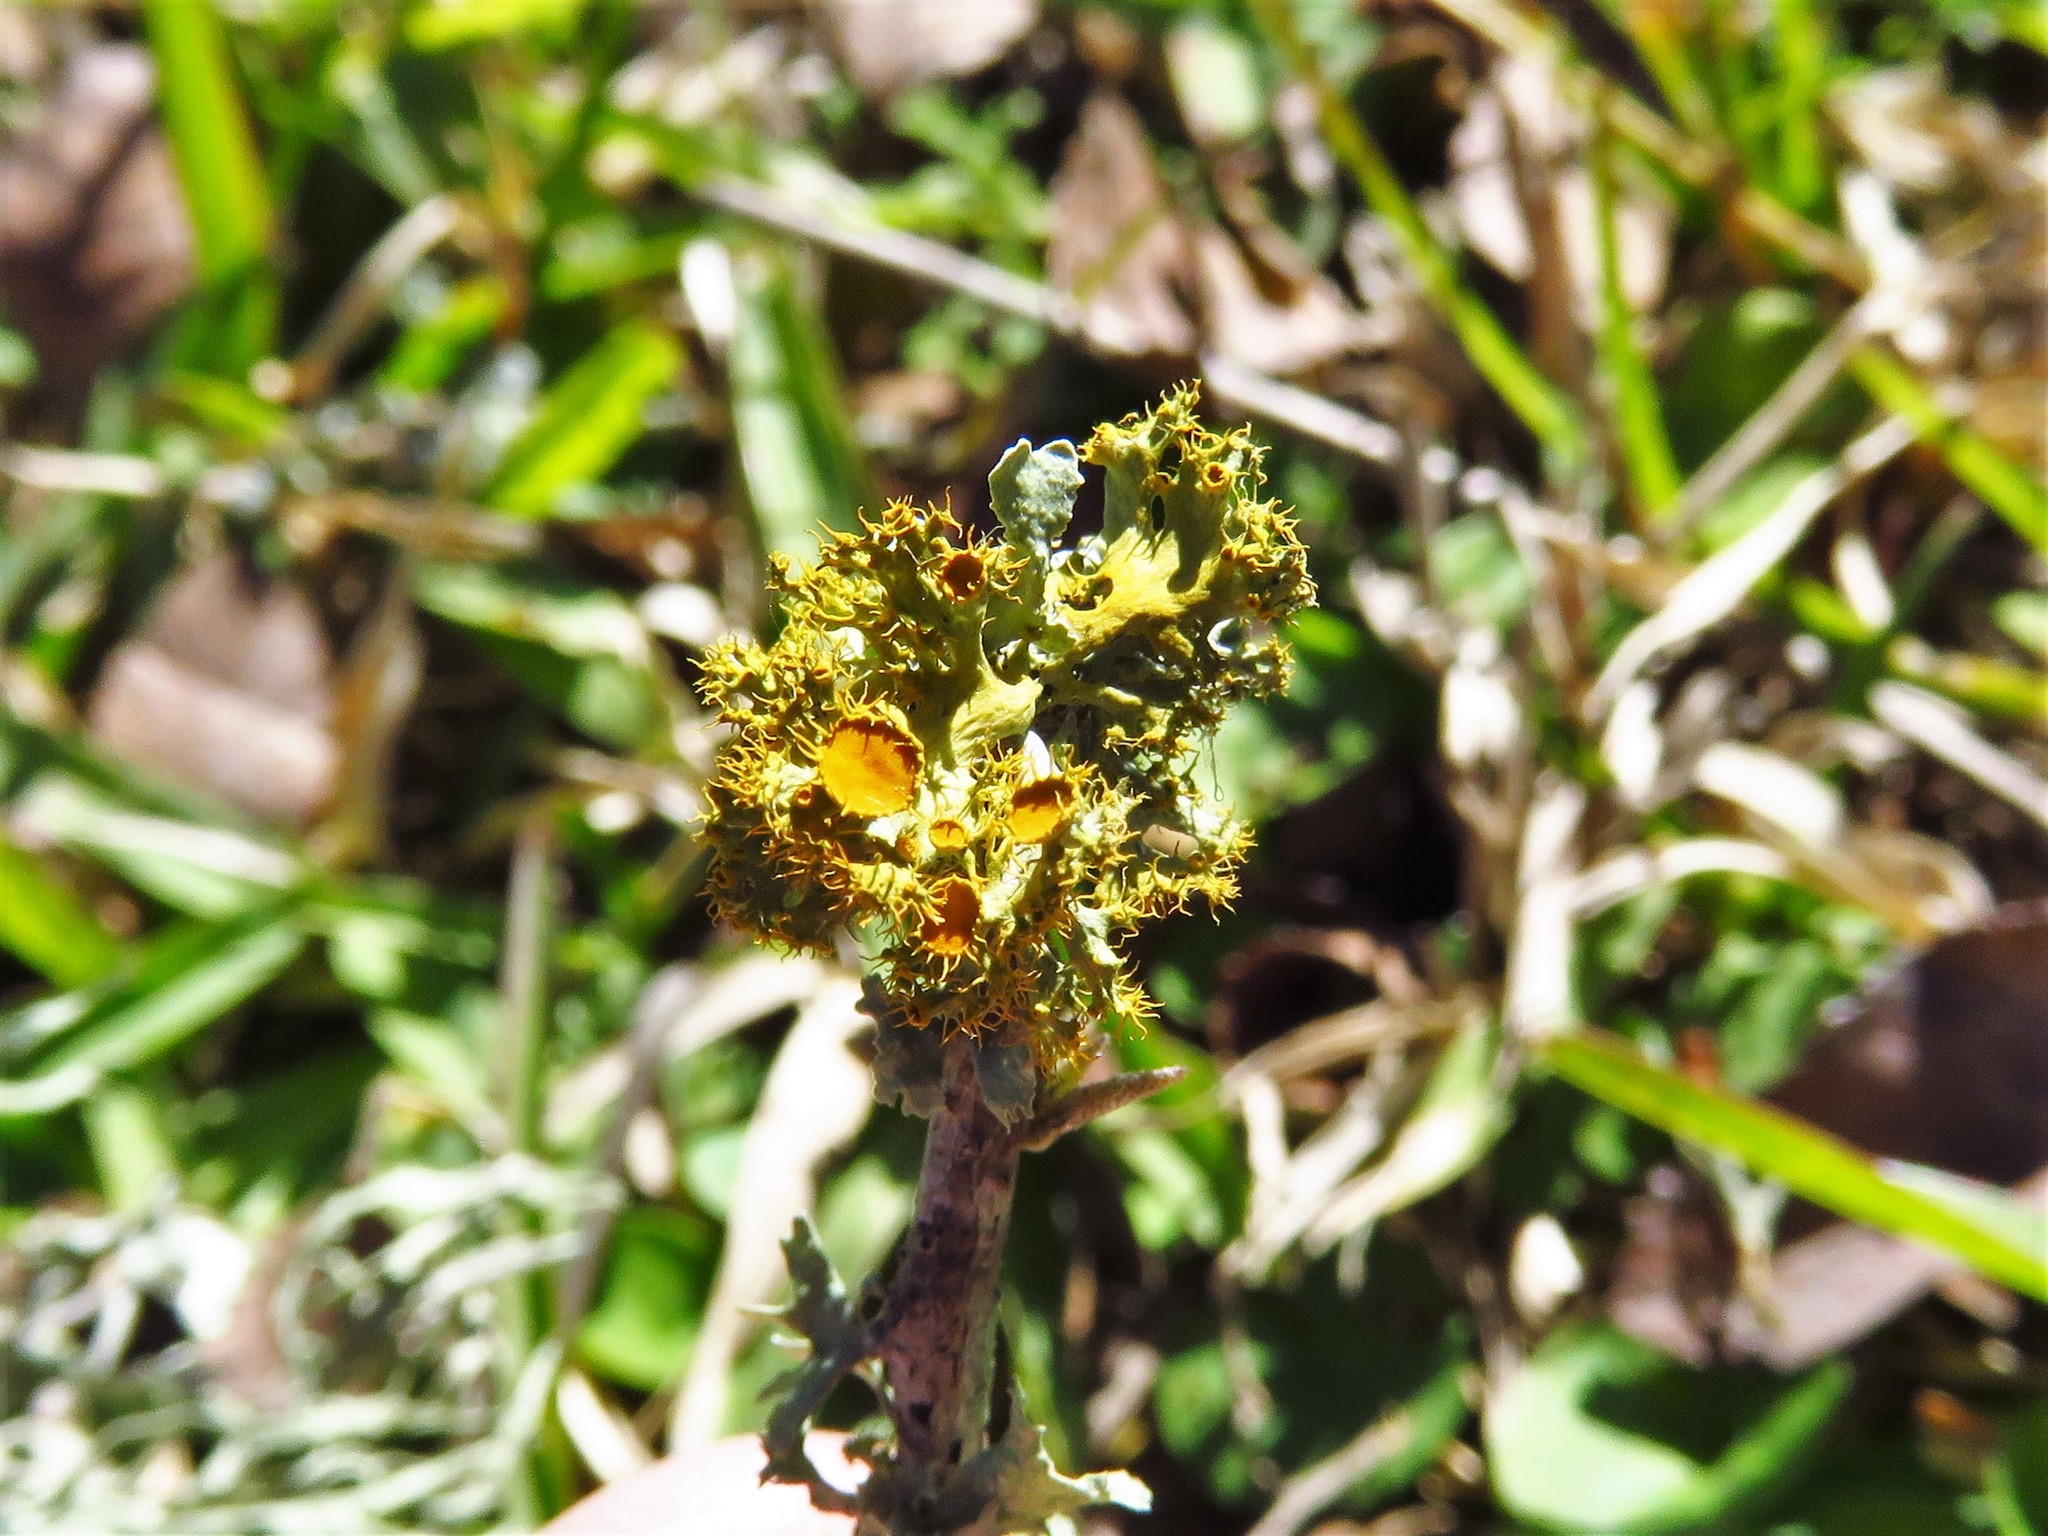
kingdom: Fungi
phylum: Ascomycota
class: Lecanoromycetes
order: Teloschistales
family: Teloschistaceae
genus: Niorma
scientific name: Niorma chrysophthalma
